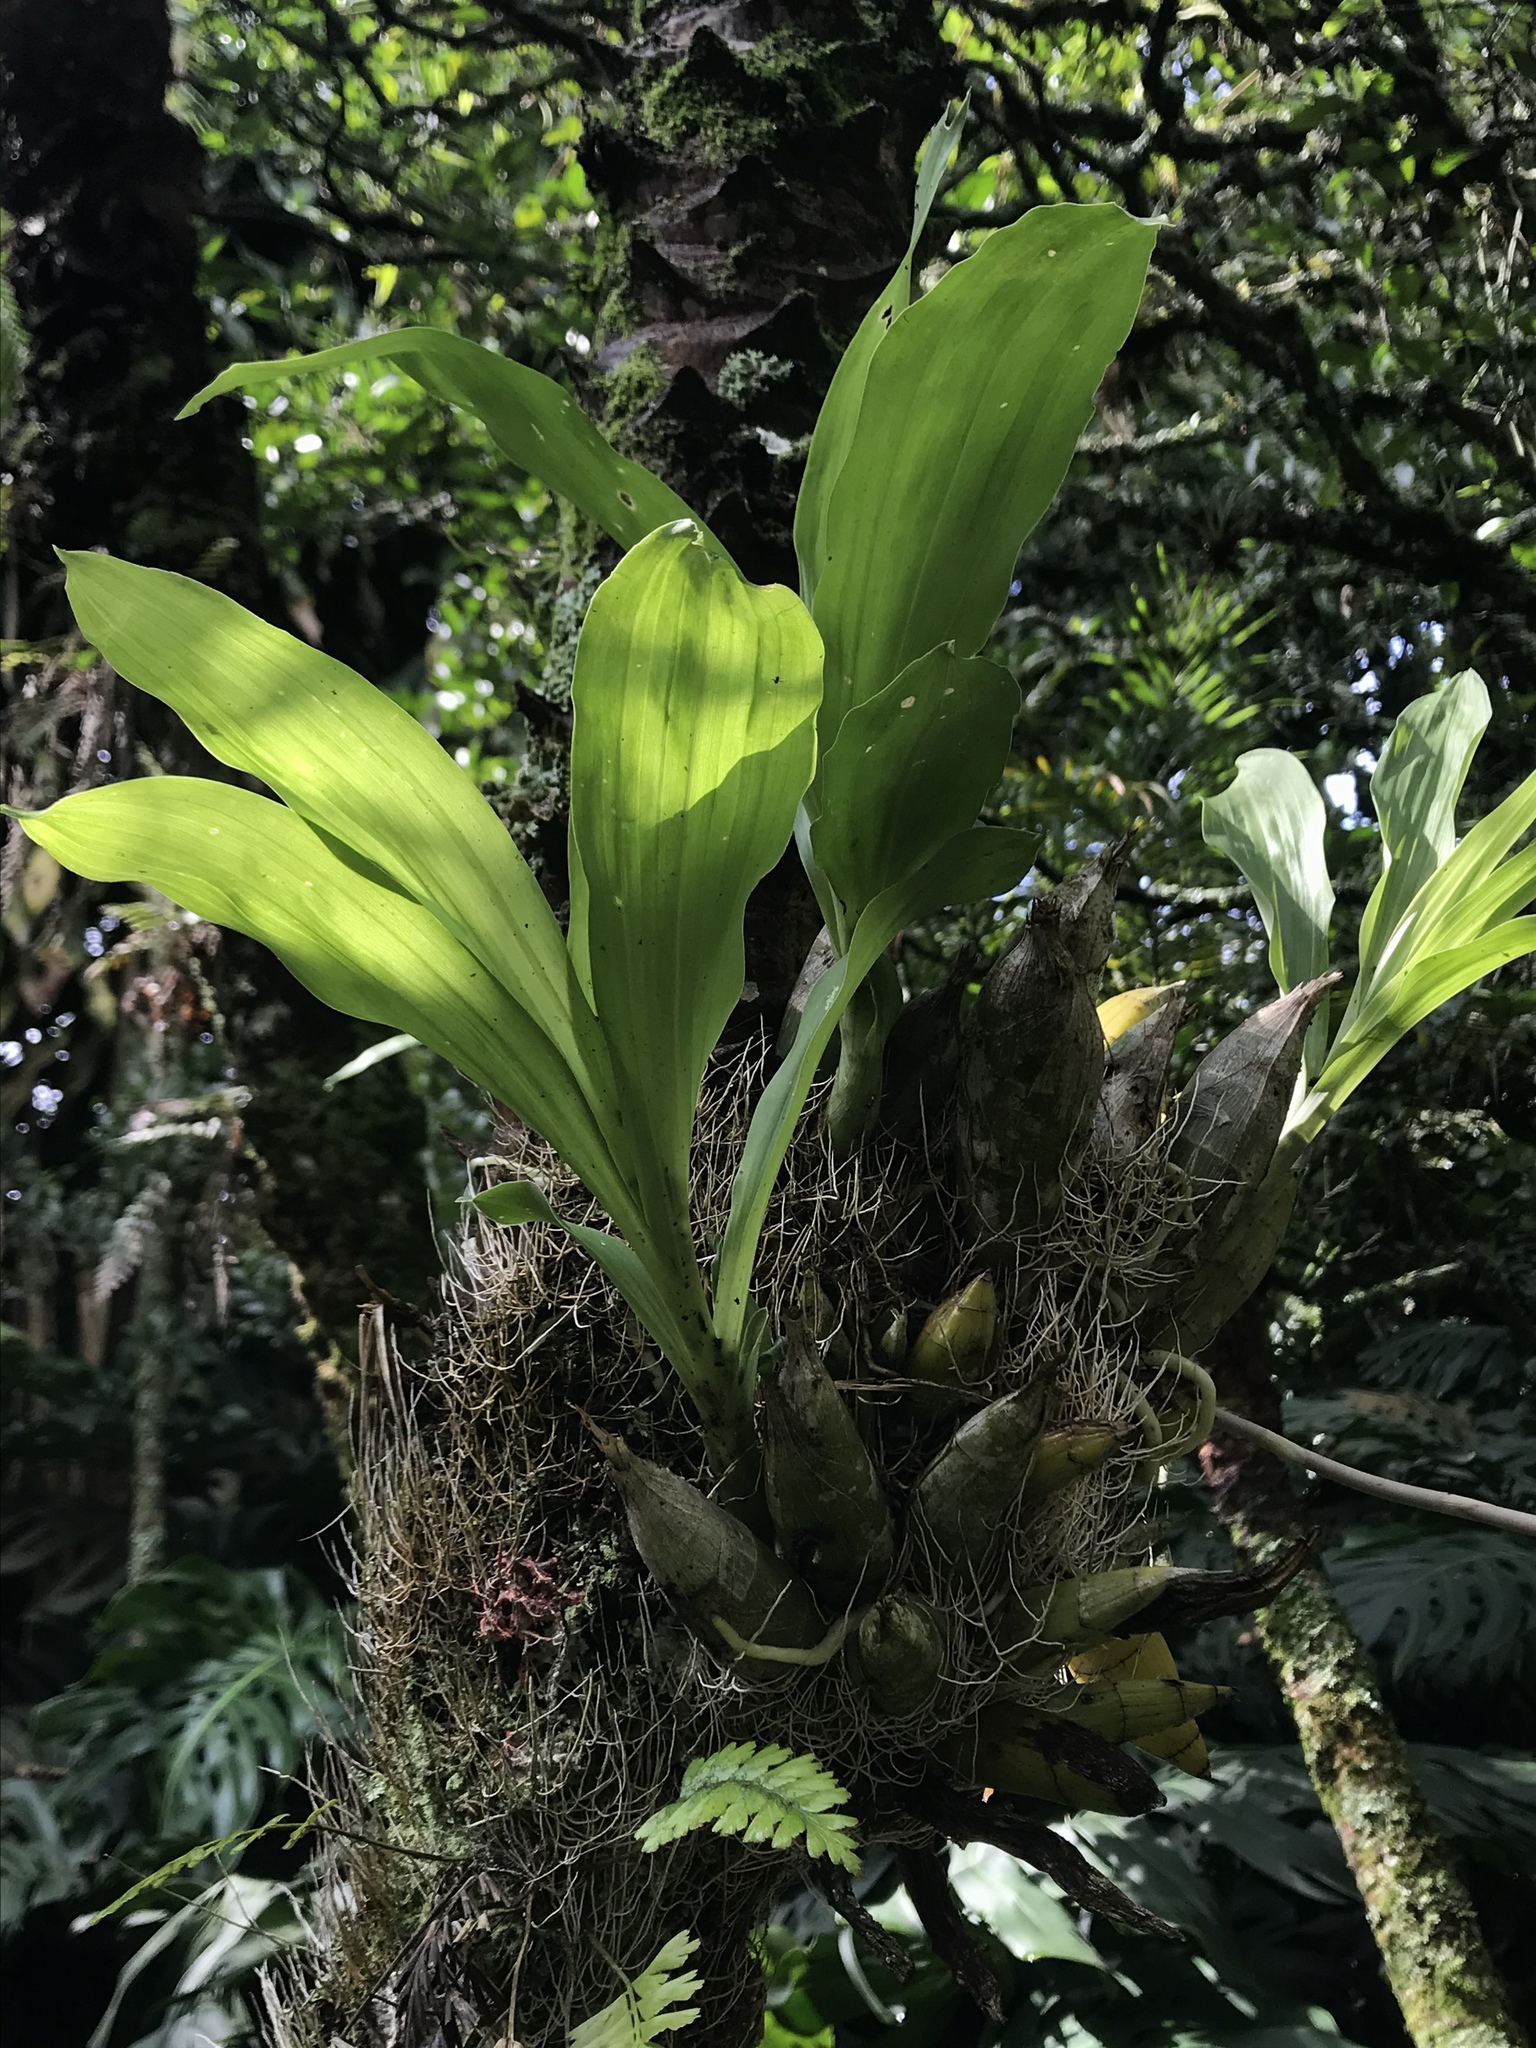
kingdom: Plantae
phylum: Tracheophyta
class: Liliopsida
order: Asparagales
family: Orchidaceae
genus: Catasetum
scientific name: Catasetum tabulare
